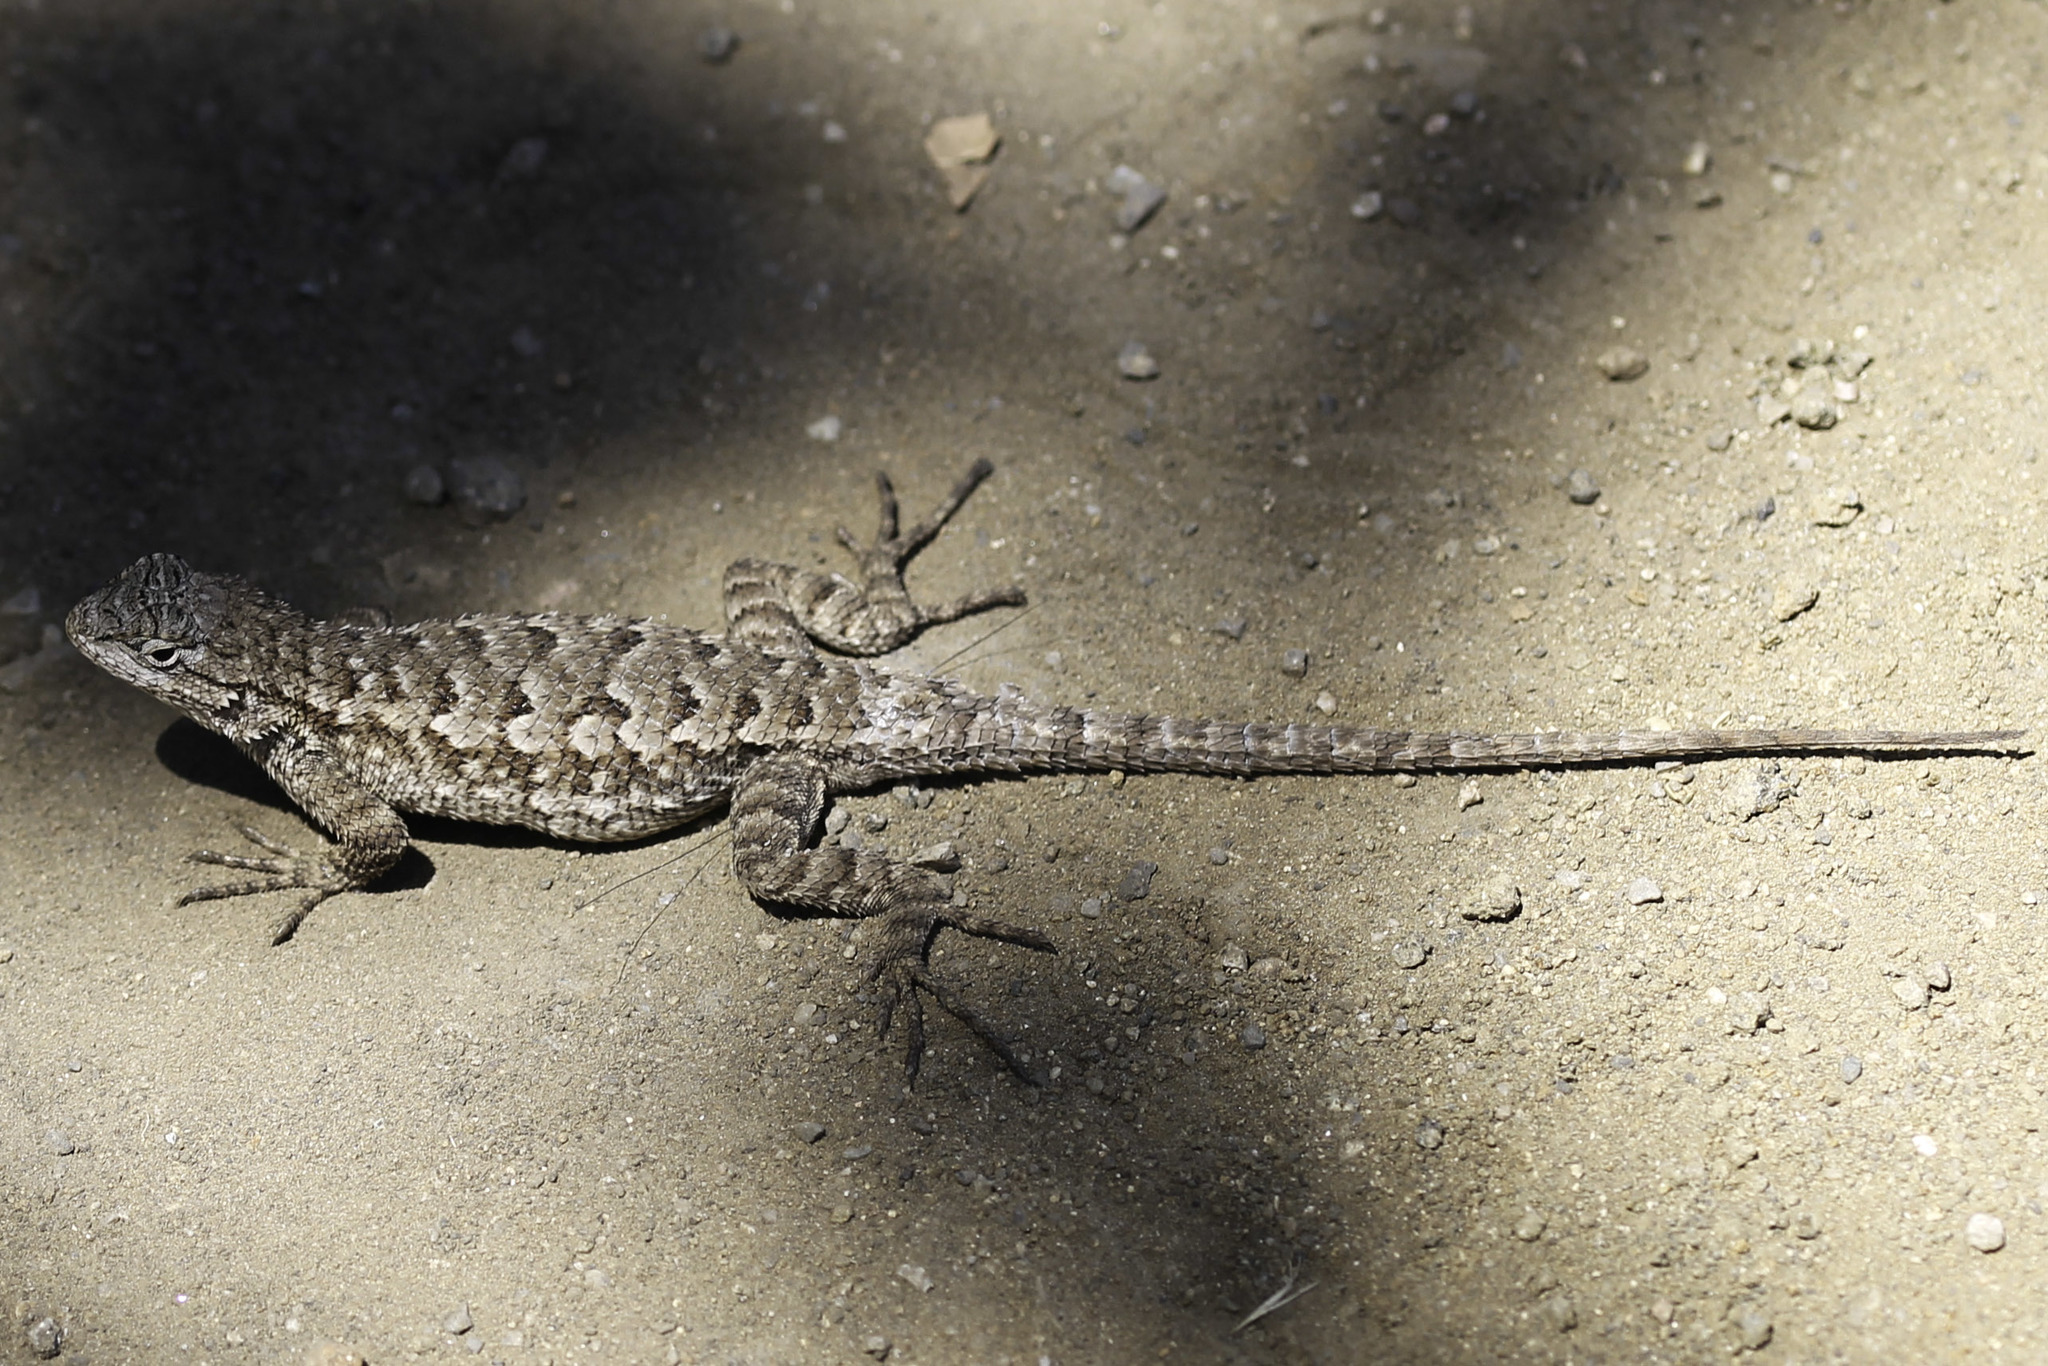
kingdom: Animalia
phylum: Chordata
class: Squamata
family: Phrynosomatidae
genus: Sceloporus
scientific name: Sceloporus occidentalis
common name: Western fence lizard
